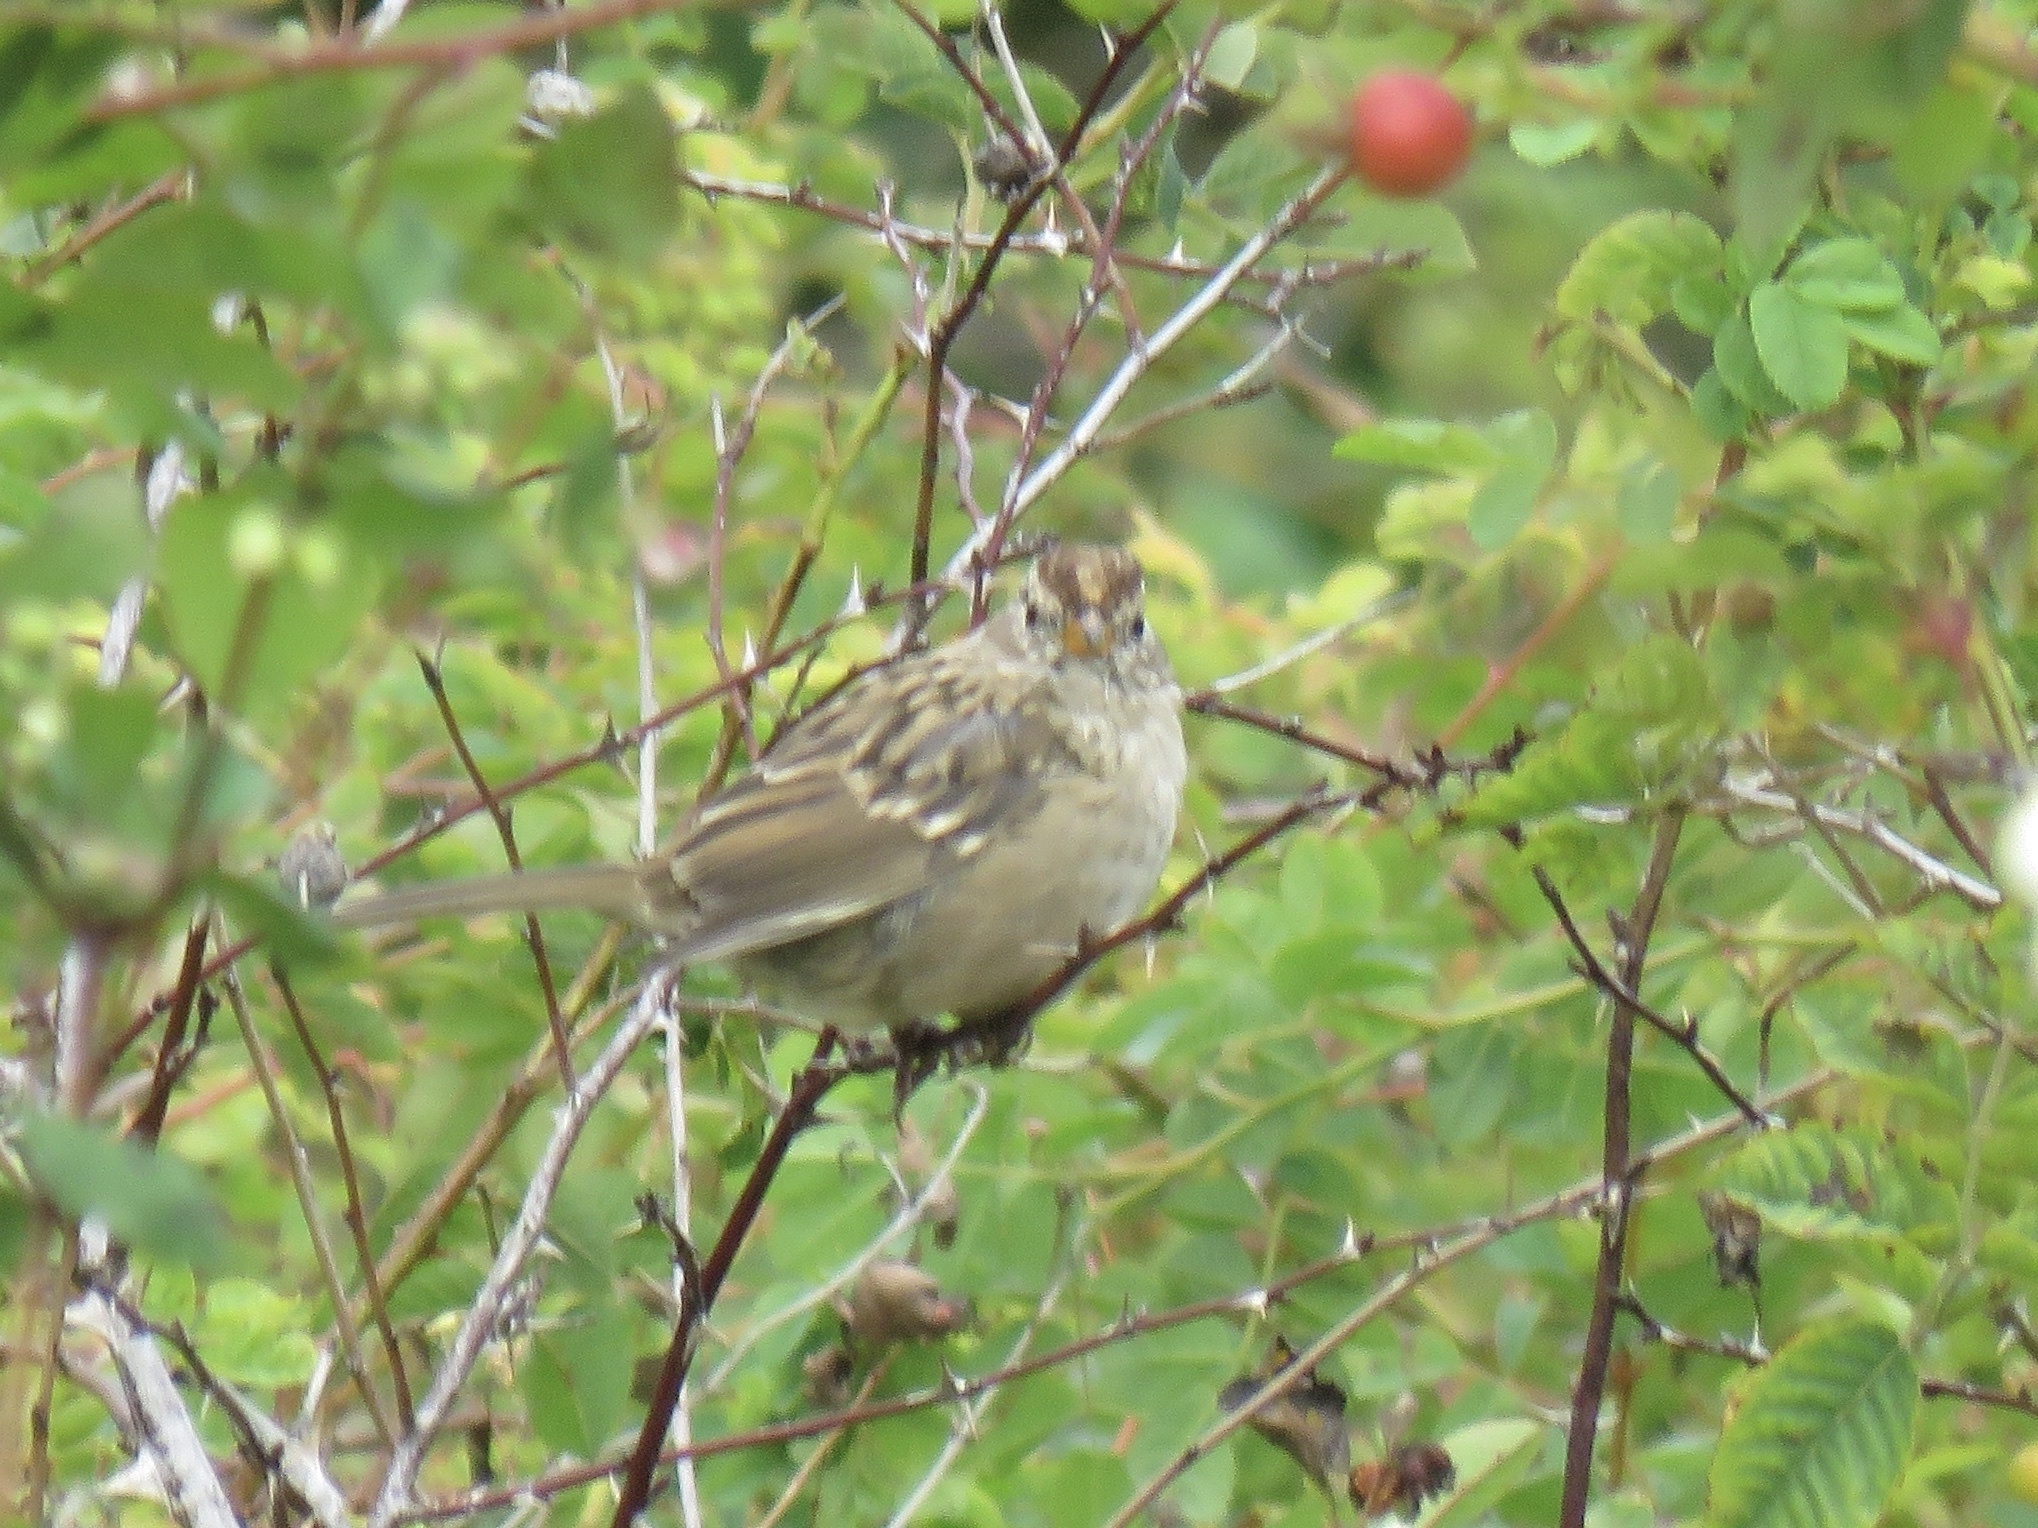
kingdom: Animalia
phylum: Chordata
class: Aves
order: Passeriformes
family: Passerellidae
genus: Zonotrichia
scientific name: Zonotrichia leucophrys
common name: White-crowned sparrow
